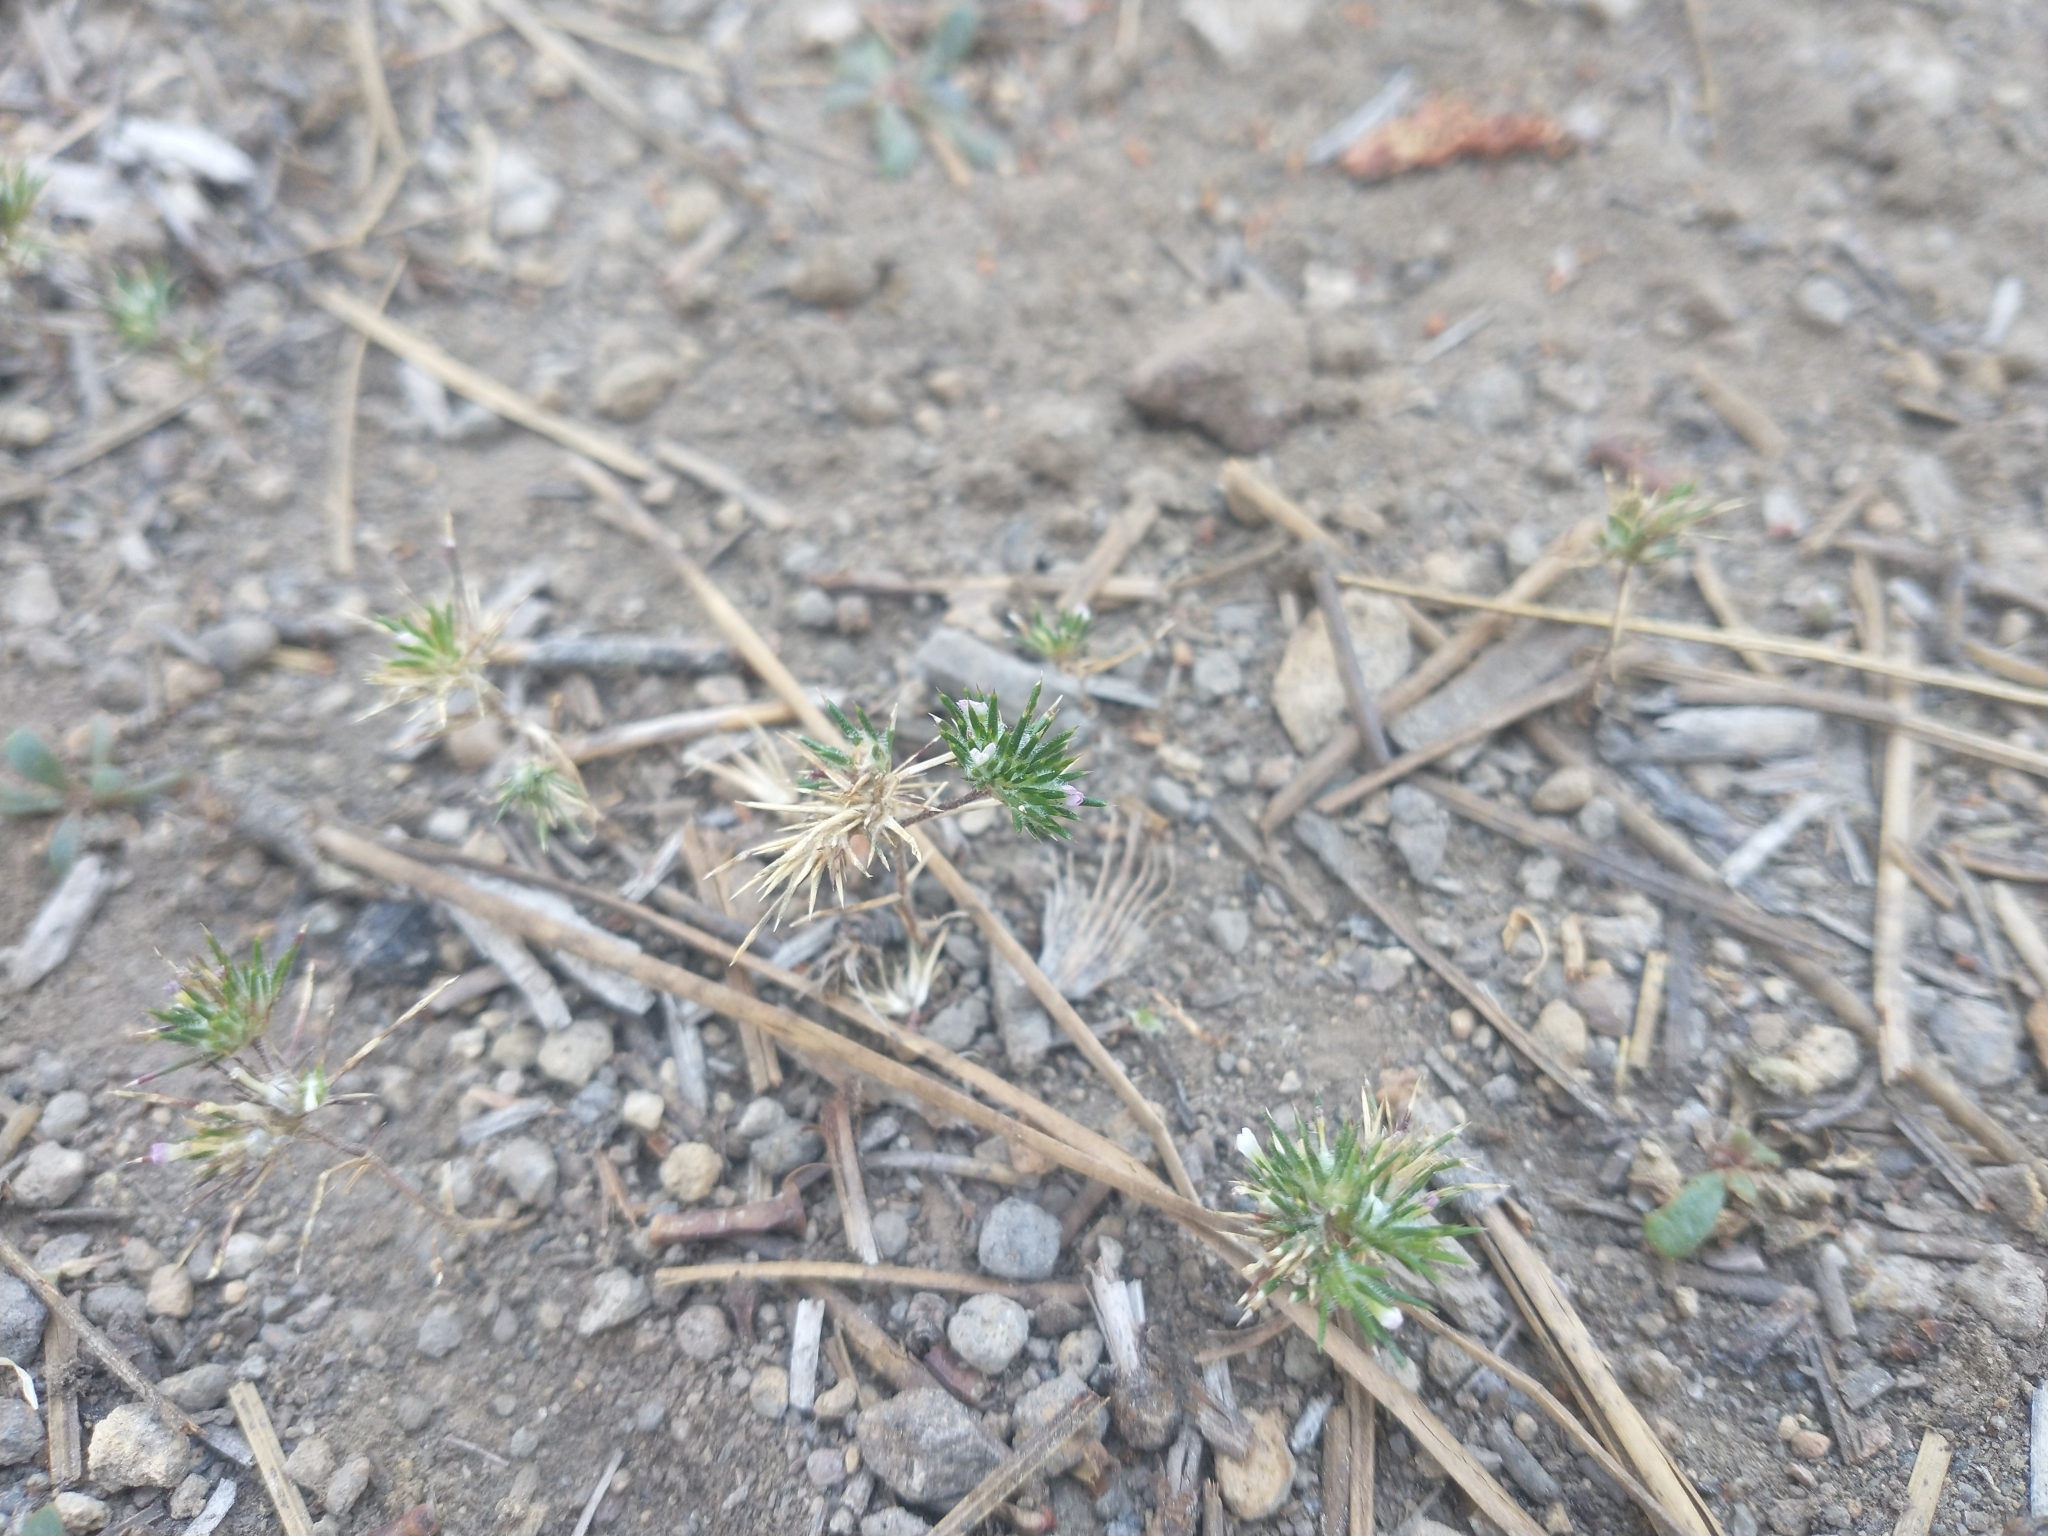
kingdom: Plantae
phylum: Tracheophyta
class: Magnoliopsida
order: Ericales
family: Polemoniaceae
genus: Navarretia
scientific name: Navarretia divaricata
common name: Mountain navarretia
